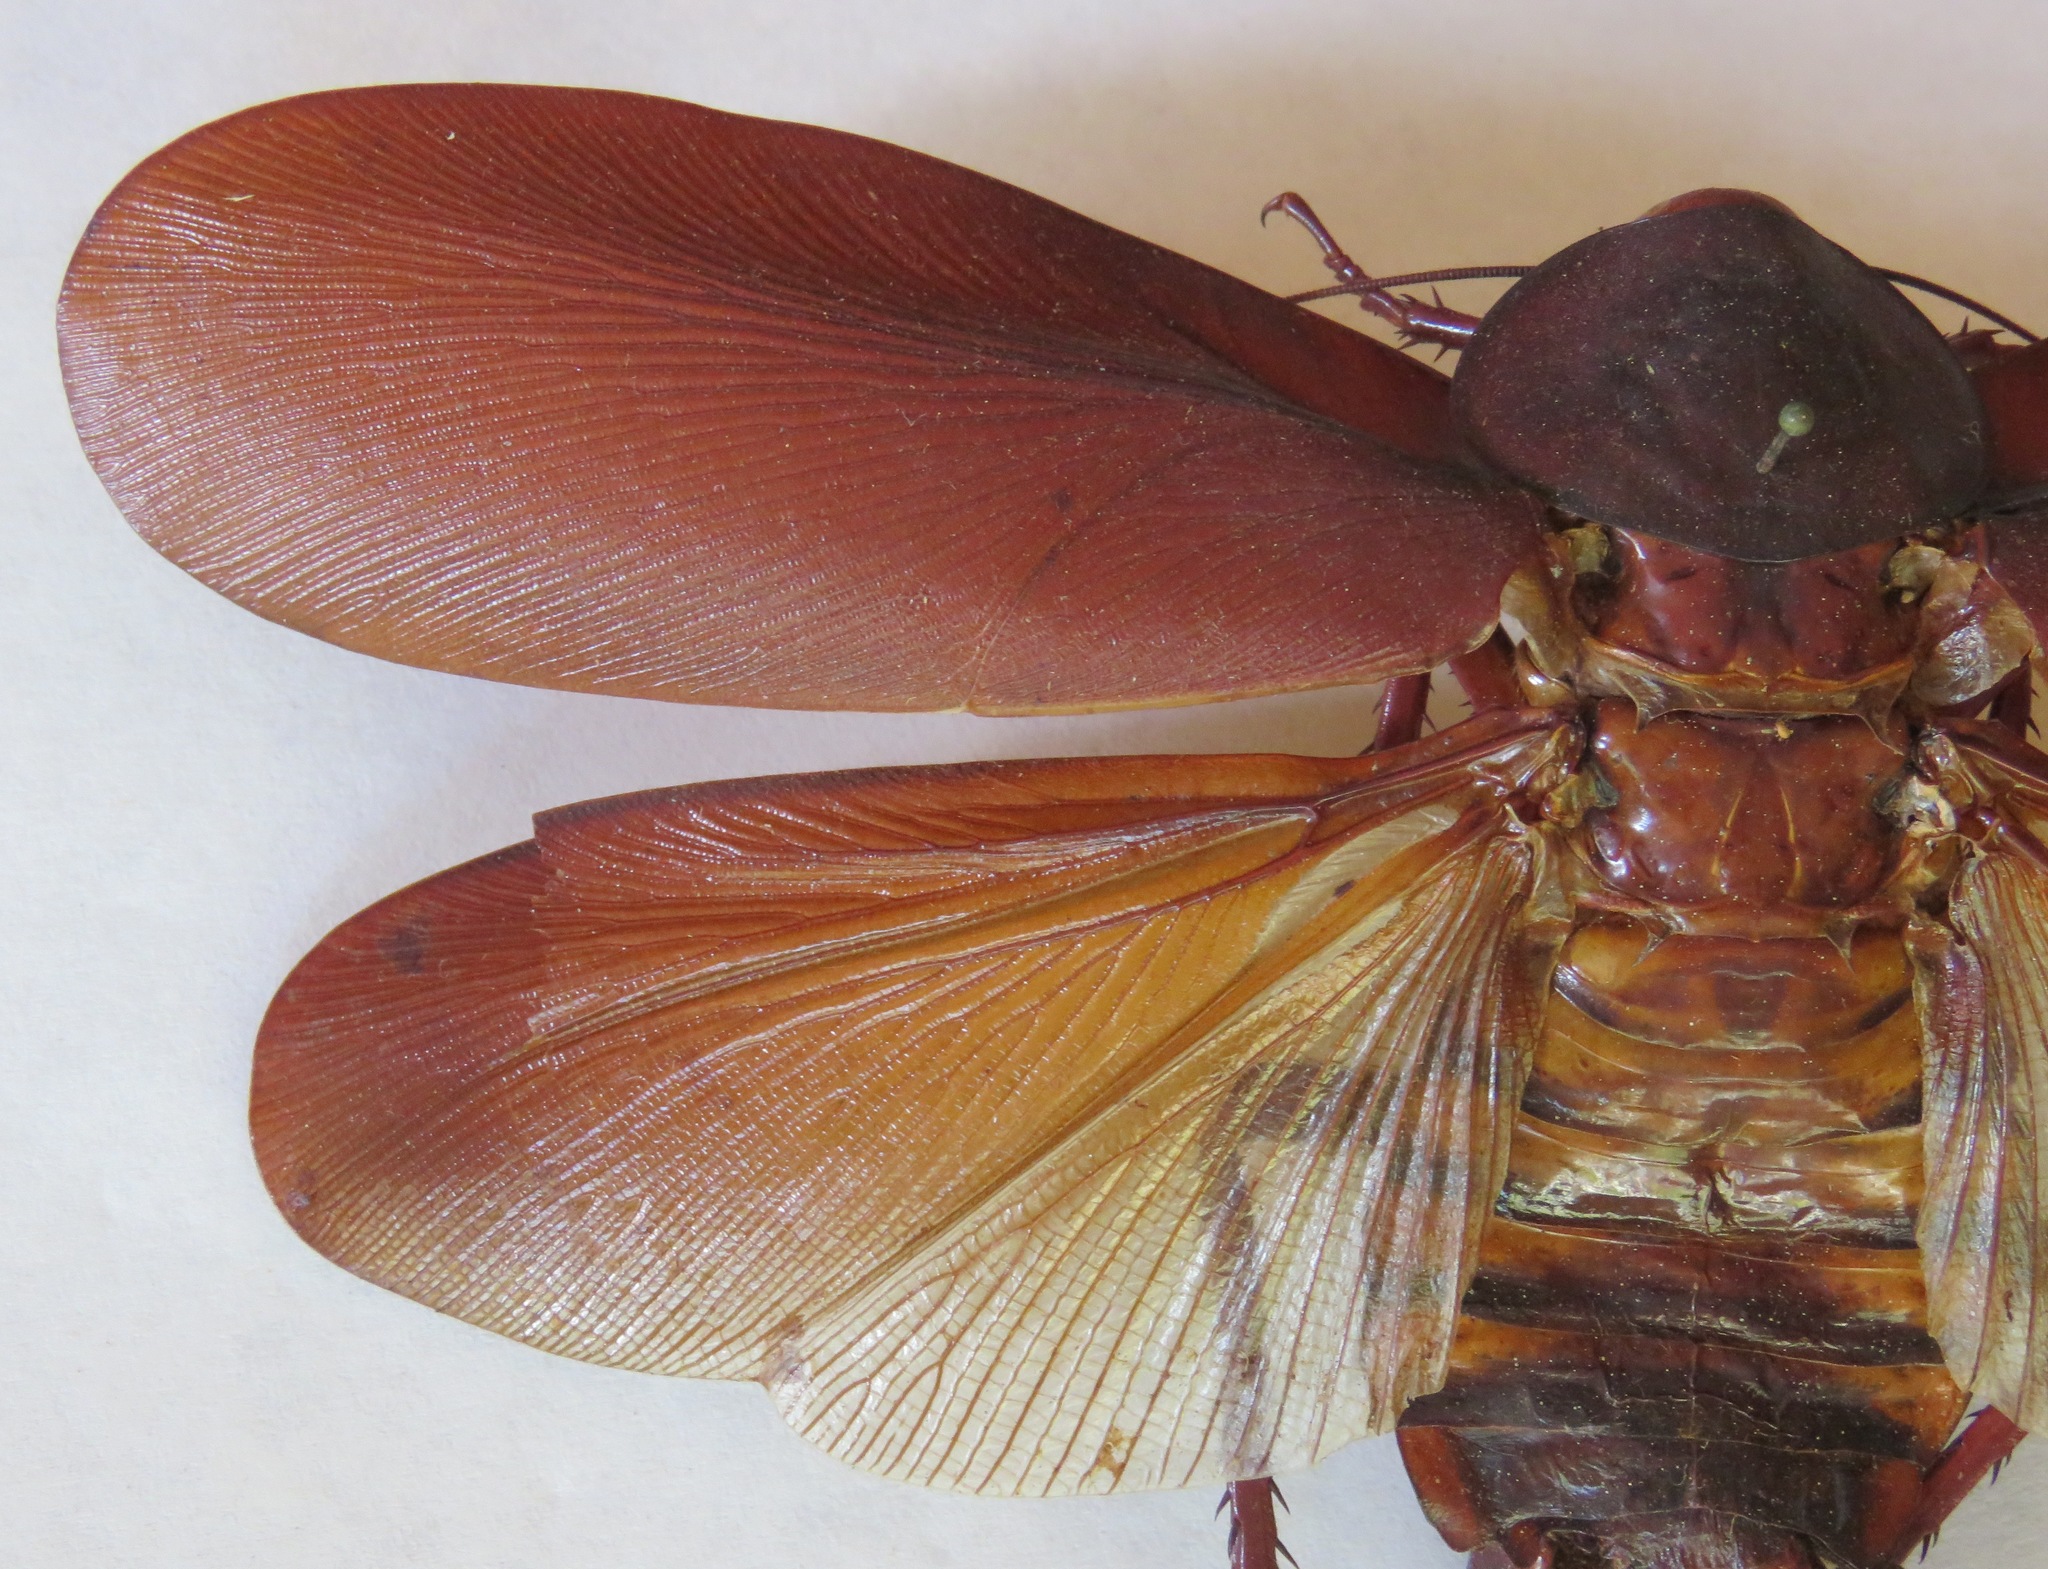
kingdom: Animalia
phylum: Arthropoda
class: Insecta
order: Blattodea
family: Ectobiidae
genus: Megaloblatta
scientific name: Megaloblatta blaberoides
